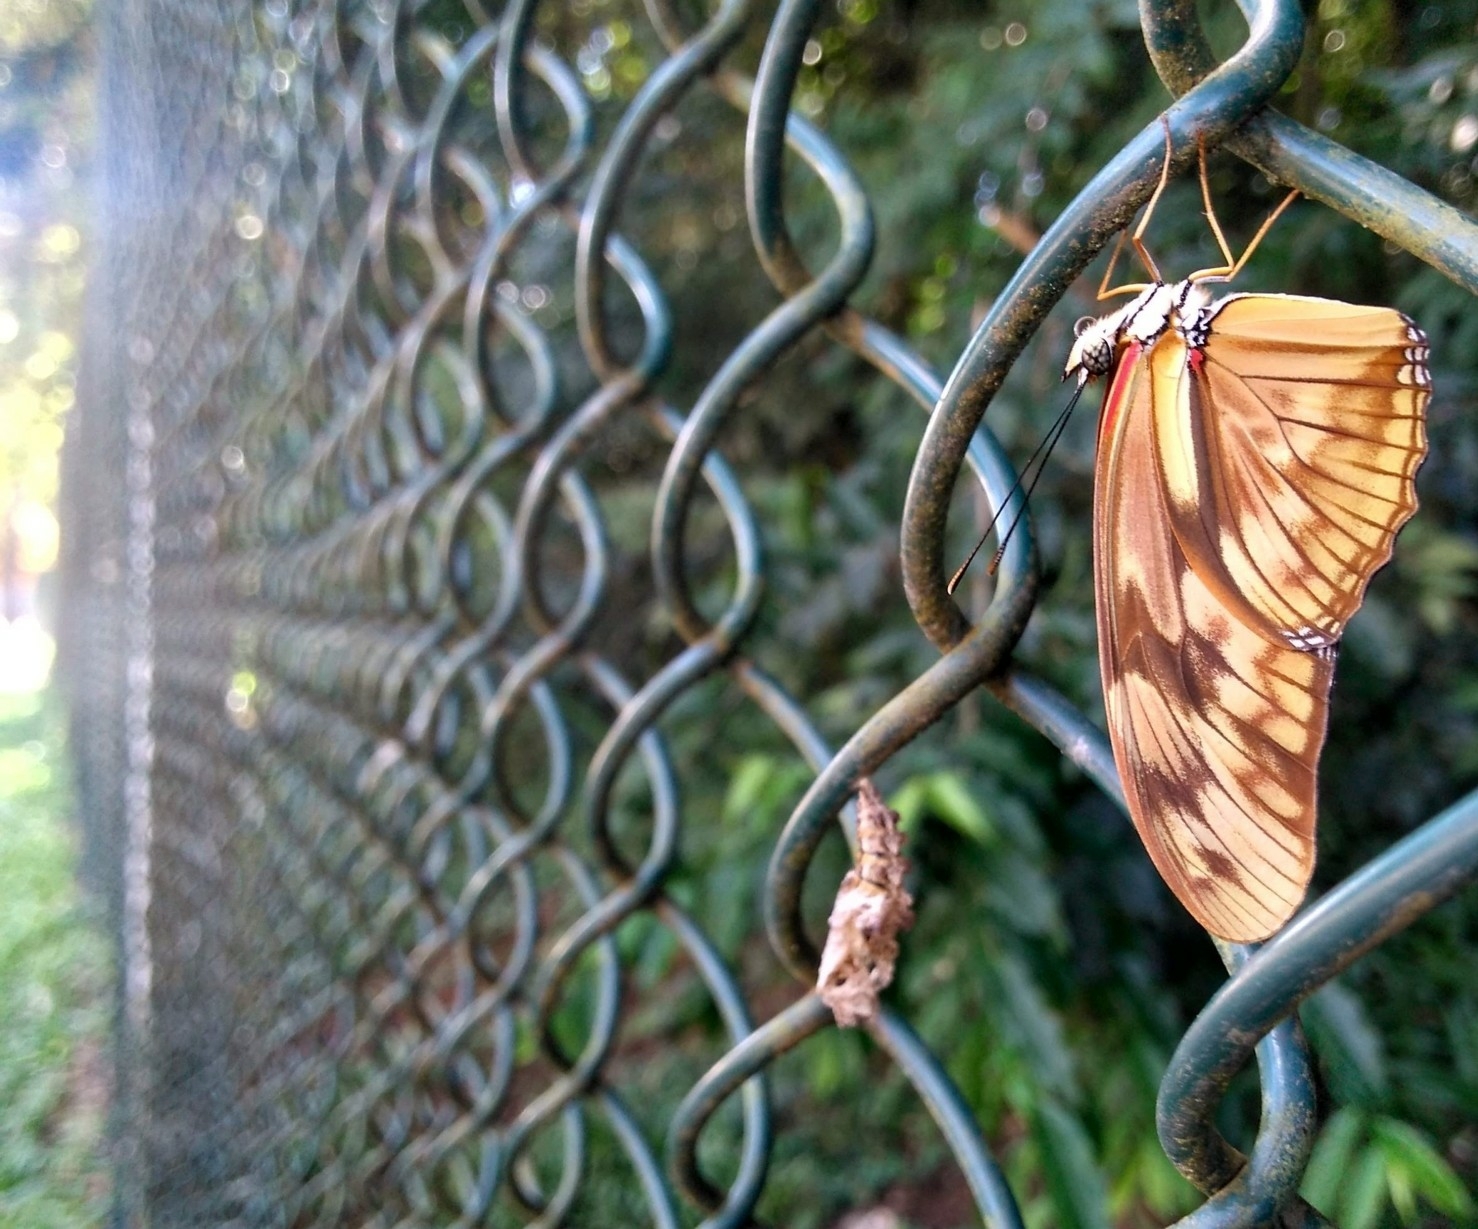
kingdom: Animalia
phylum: Arthropoda
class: Insecta
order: Lepidoptera
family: Nymphalidae
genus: Dryas
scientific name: Dryas iulia
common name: Flambeau
